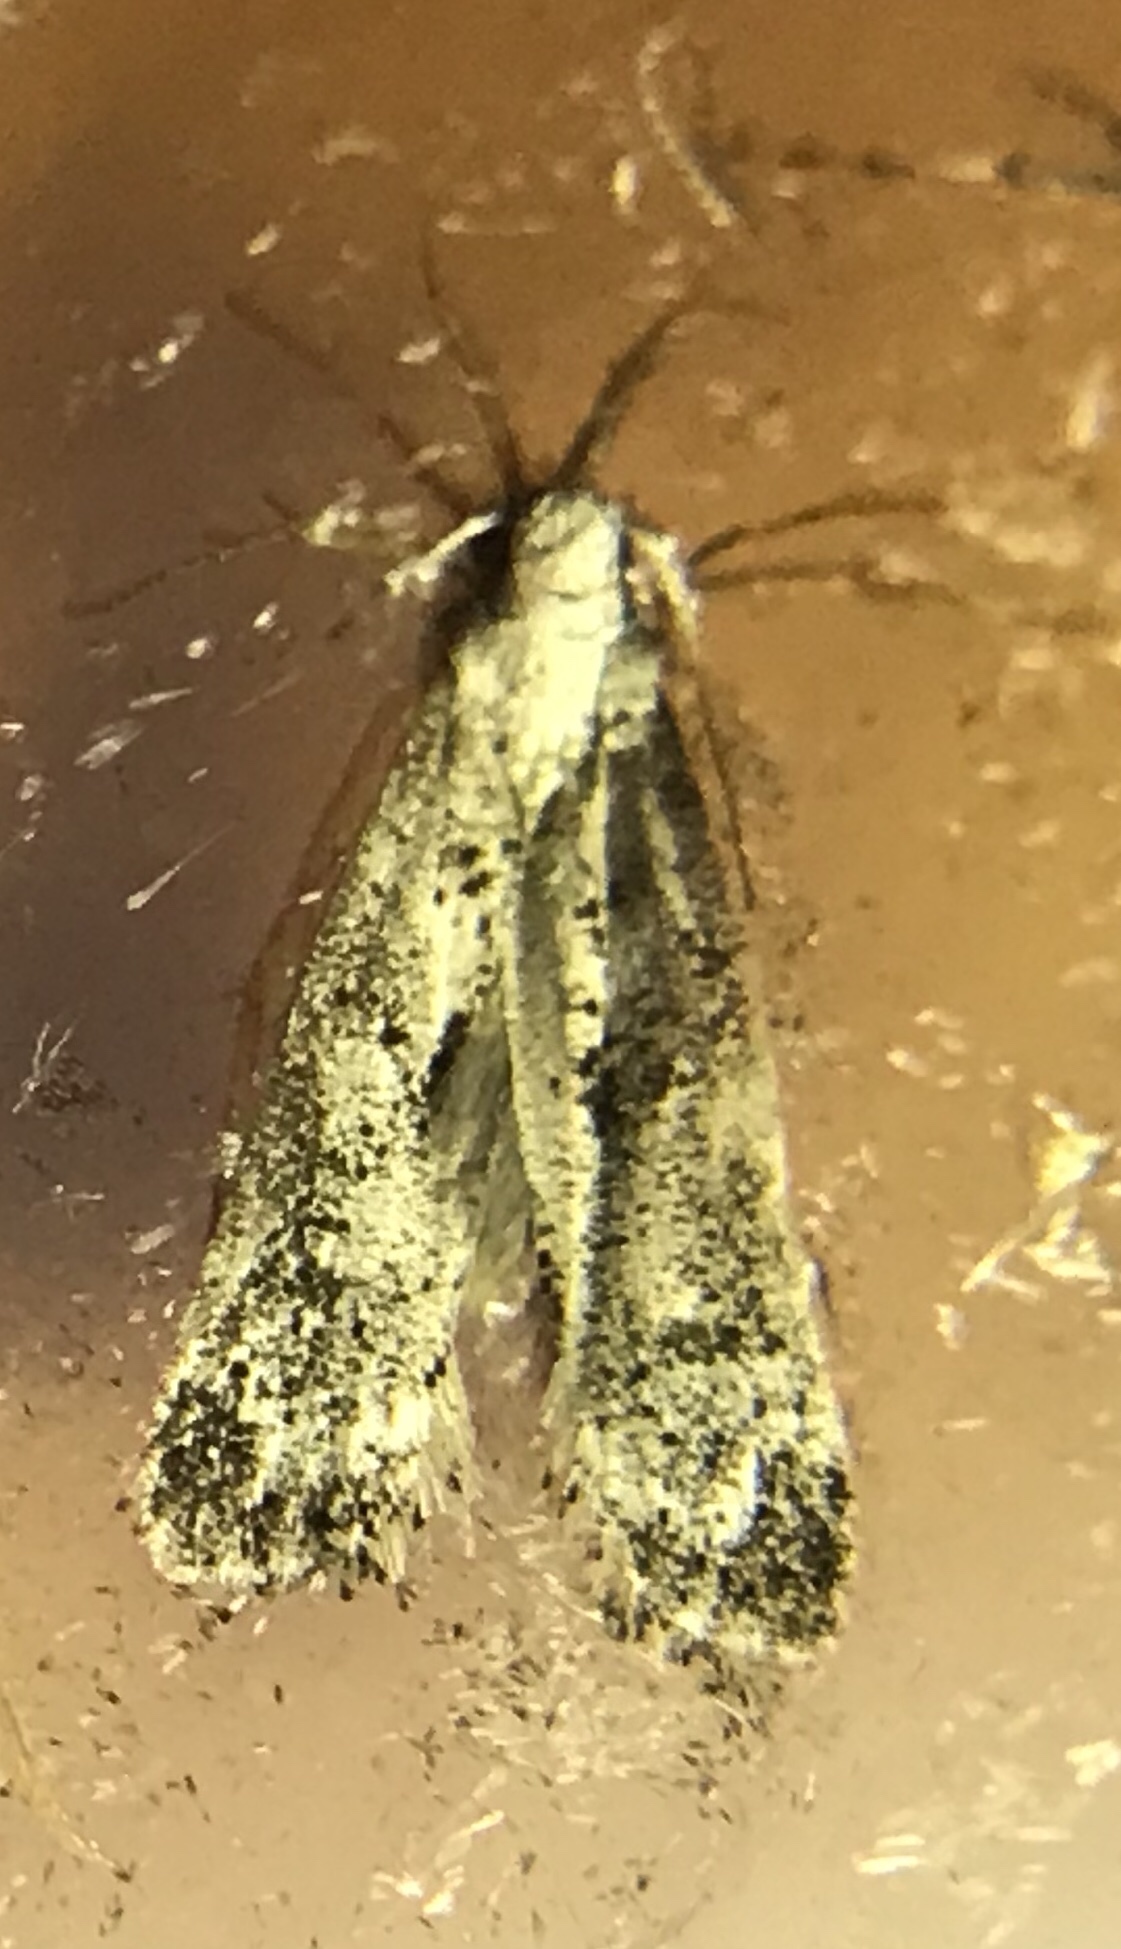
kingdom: Animalia
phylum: Arthropoda
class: Insecta
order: Lepidoptera
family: Gelechiidae
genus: Dichomeris
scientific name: Dichomeris inversella
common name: Inverse dichomeris moth
